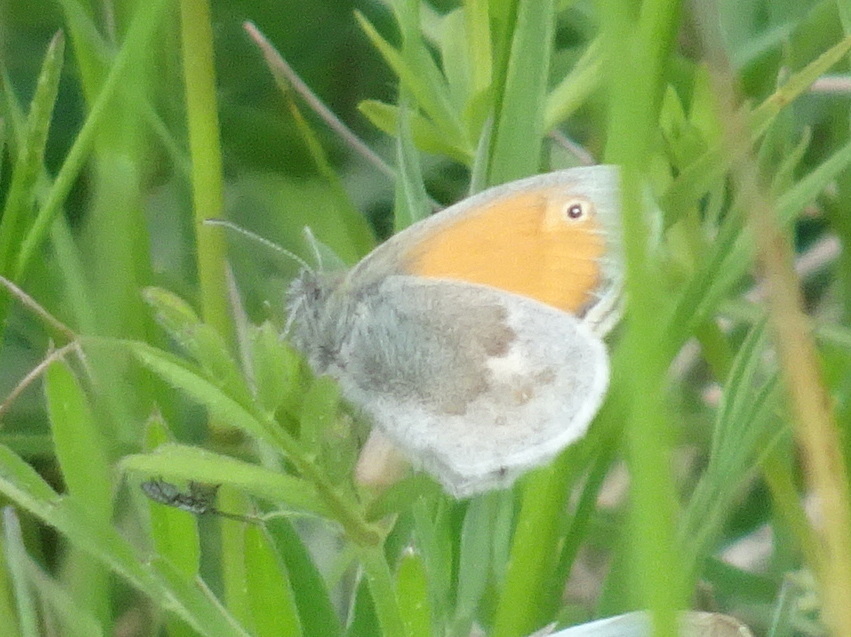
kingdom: Animalia
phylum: Arthropoda
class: Insecta
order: Lepidoptera
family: Nymphalidae
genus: Coenonympha
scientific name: Coenonympha pamphilus
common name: Small heath
